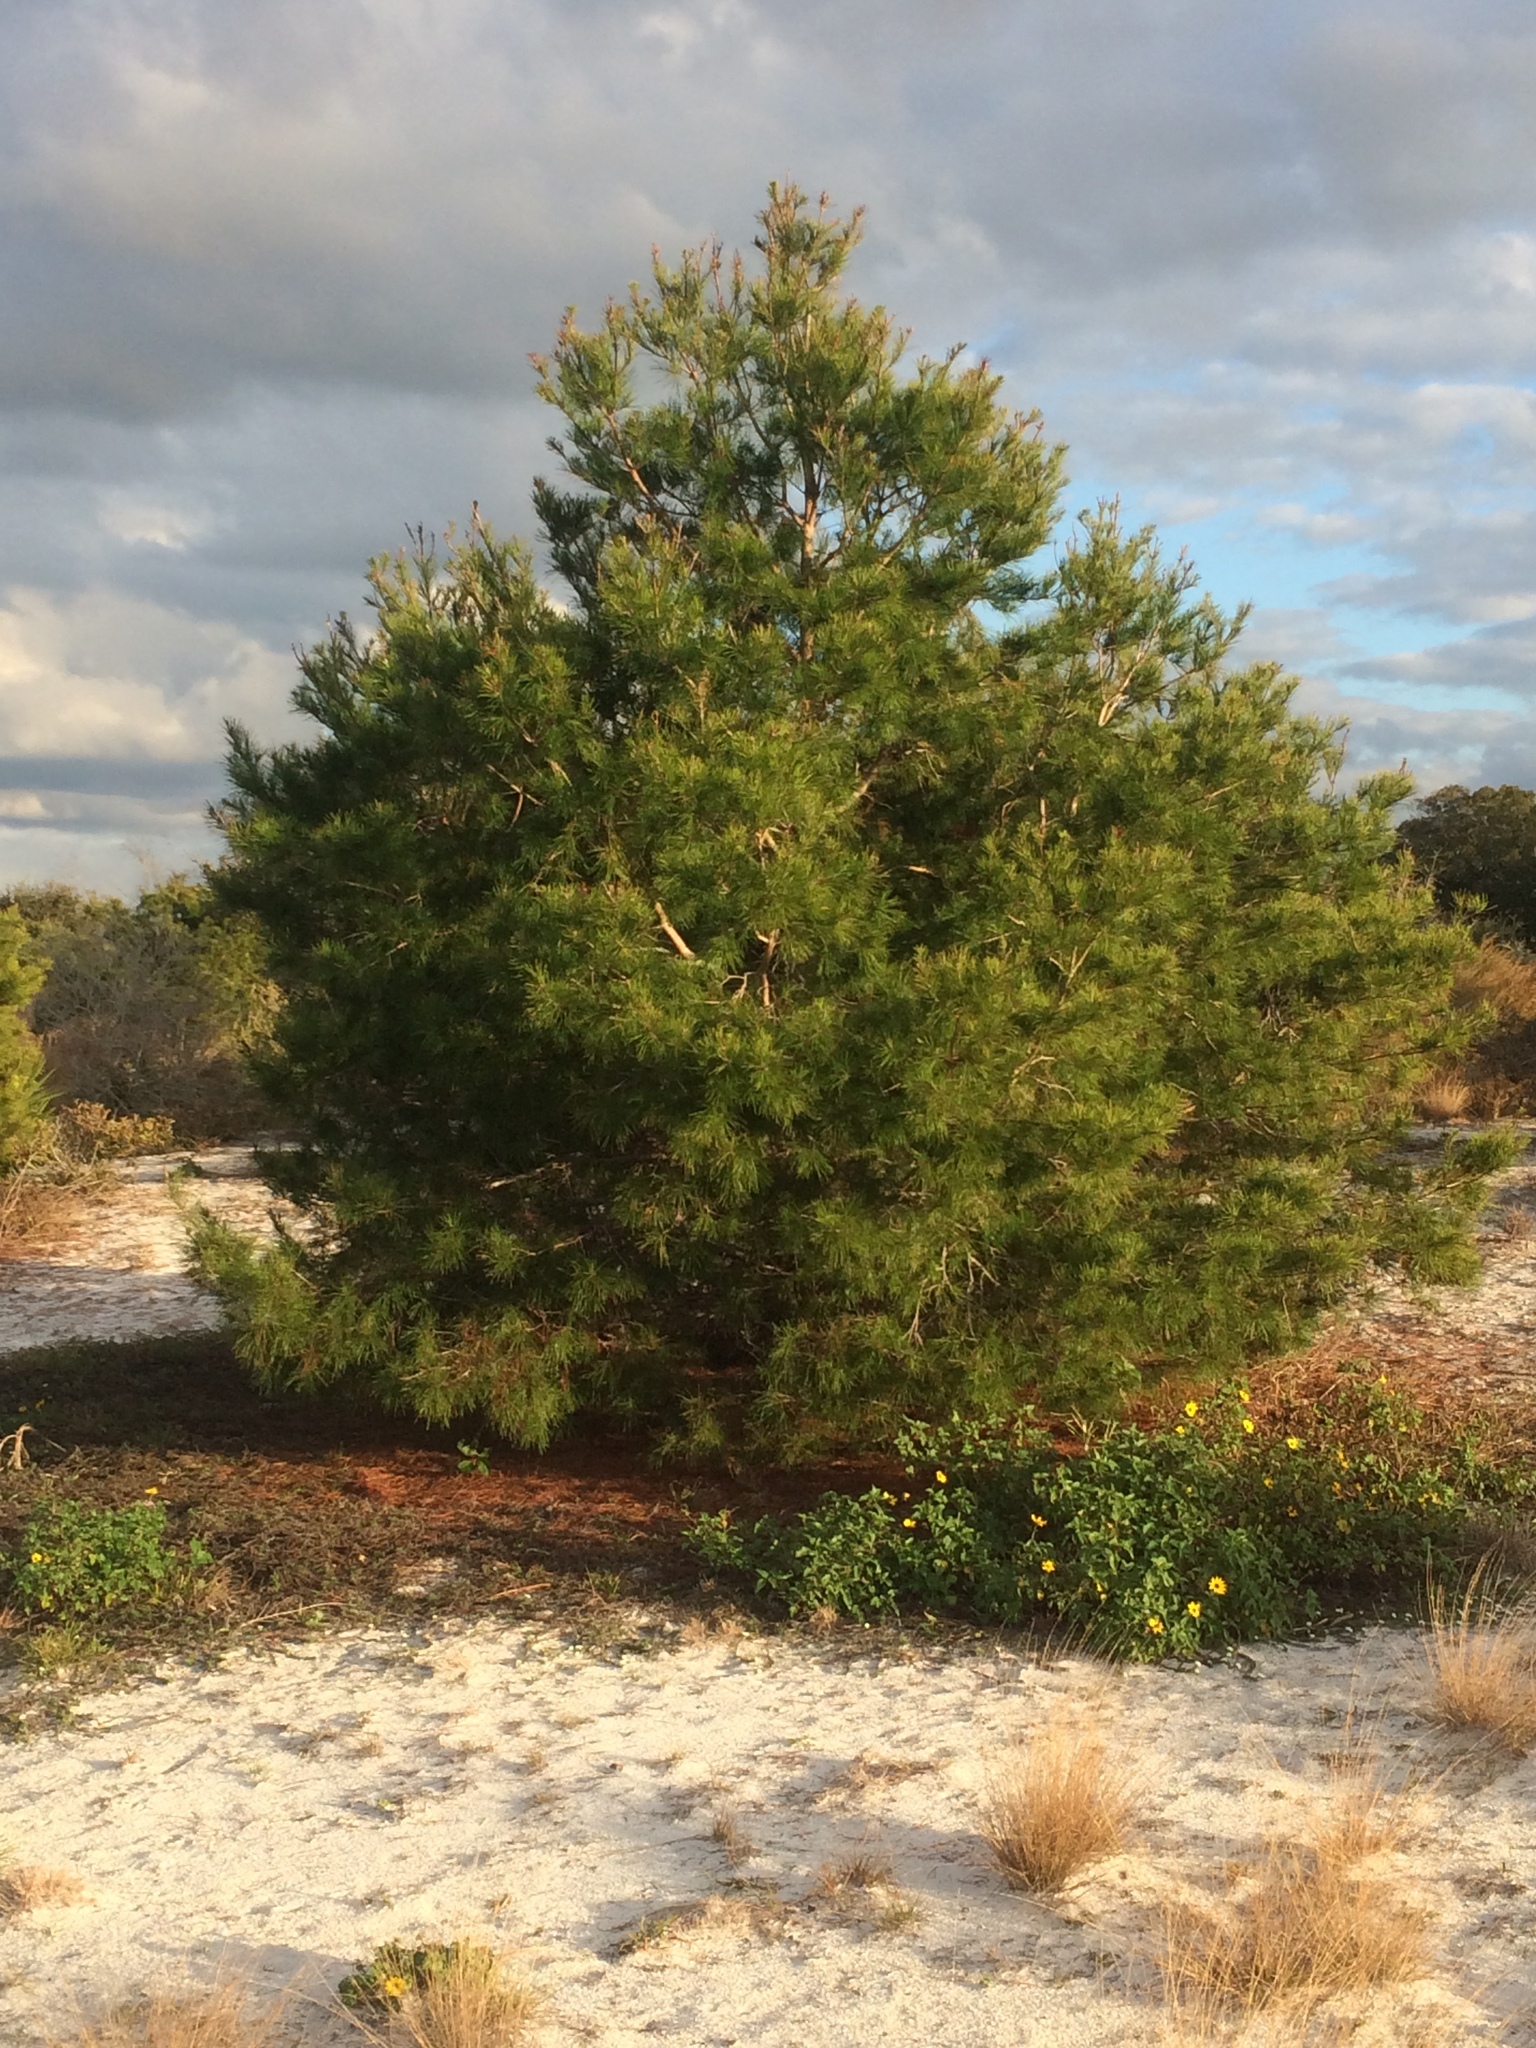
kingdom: Plantae
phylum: Tracheophyta
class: Pinopsida
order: Pinales
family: Pinaceae
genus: Pinus
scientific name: Pinus clausa
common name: Sand pine
